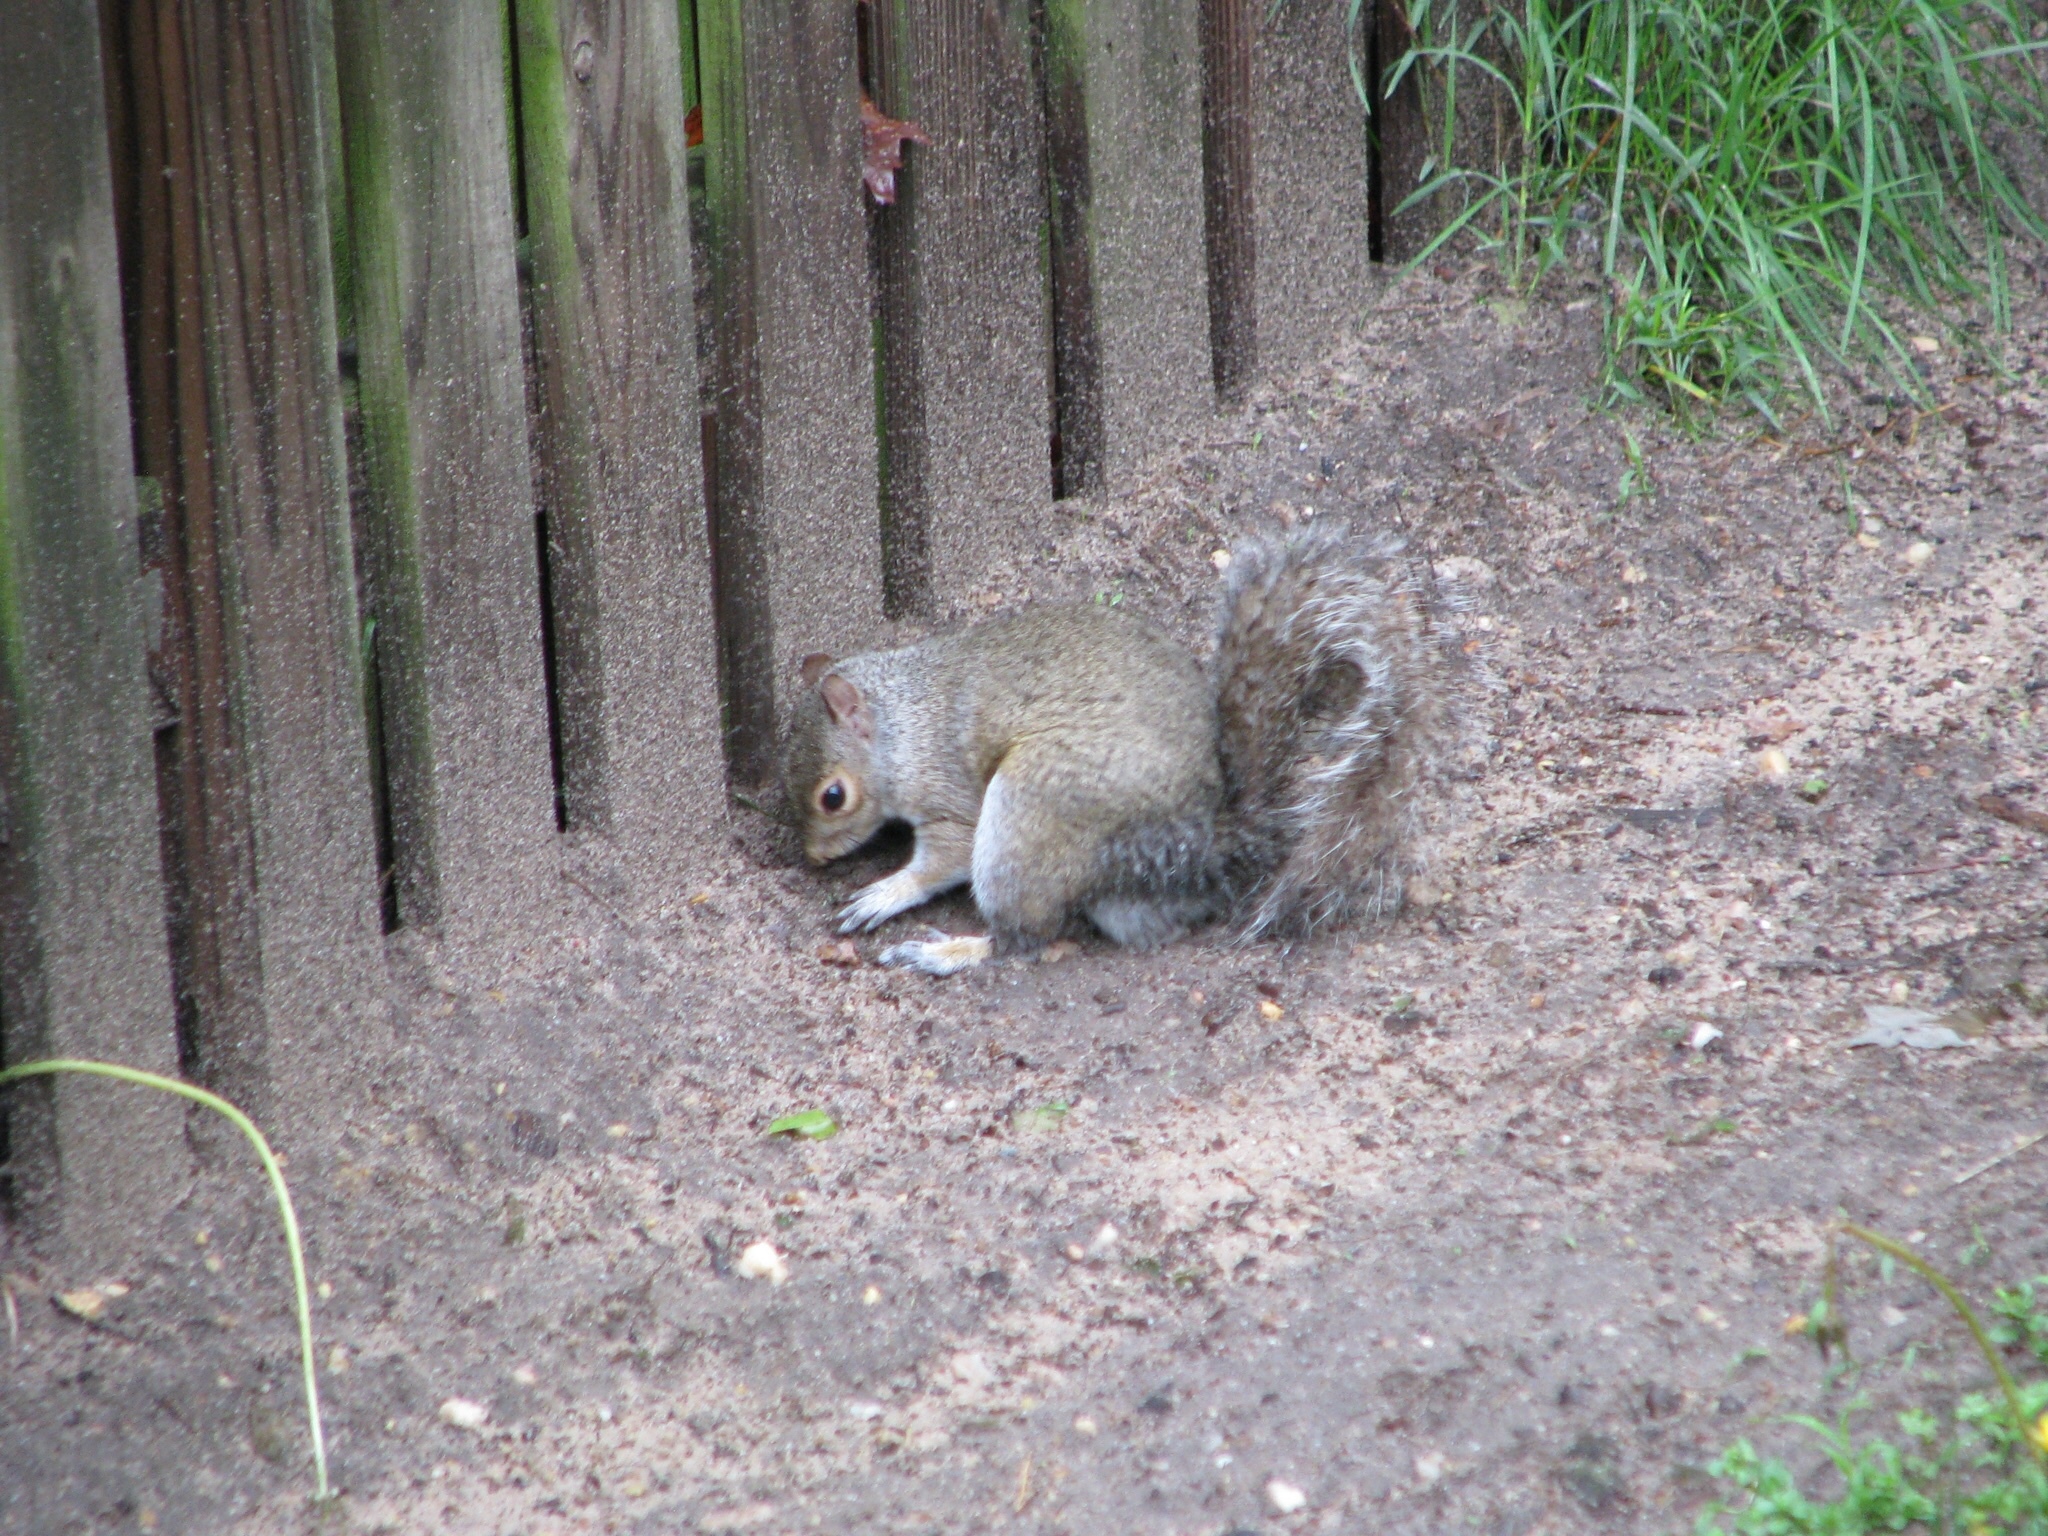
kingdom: Animalia
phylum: Chordata
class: Mammalia
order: Rodentia
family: Sciuridae
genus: Sciurus
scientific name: Sciurus carolinensis
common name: Eastern gray squirrel
